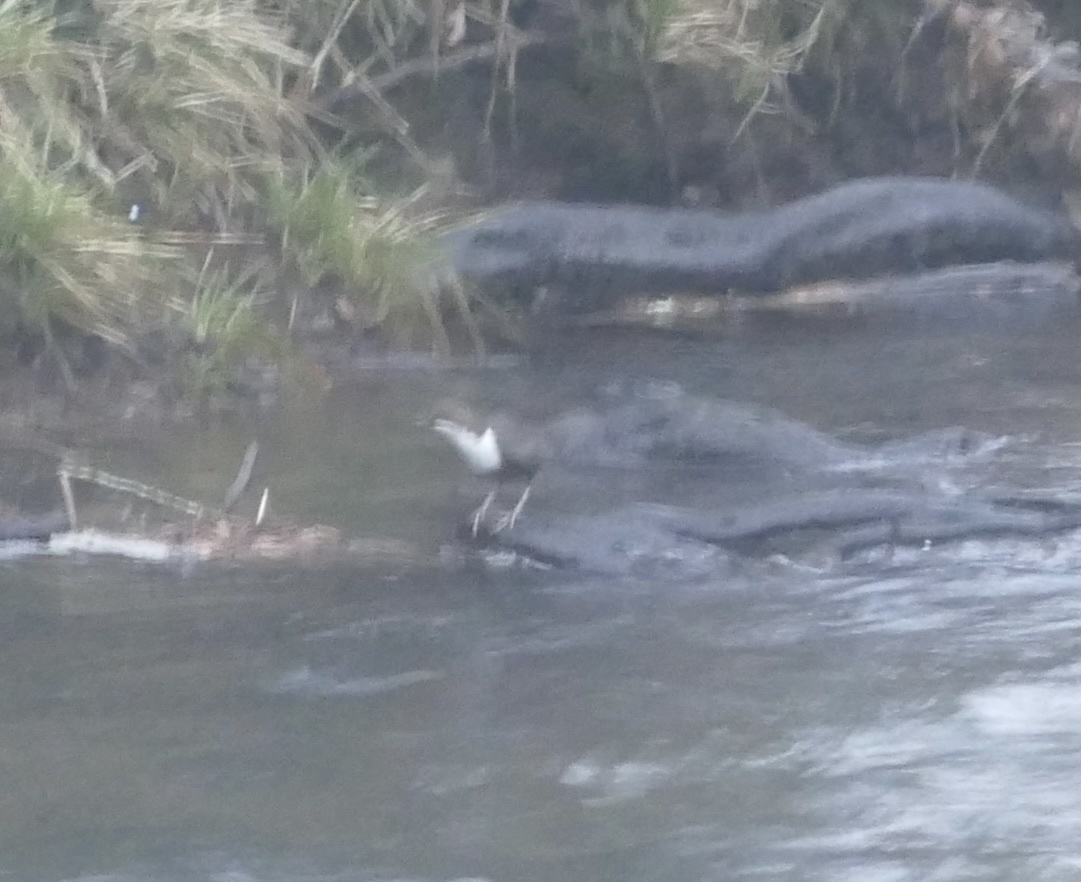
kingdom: Animalia
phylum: Chordata
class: Aves
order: Passeriformes
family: Cinclidae
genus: Cinclus
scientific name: Cinclus cinclus
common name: White-throated dipper
